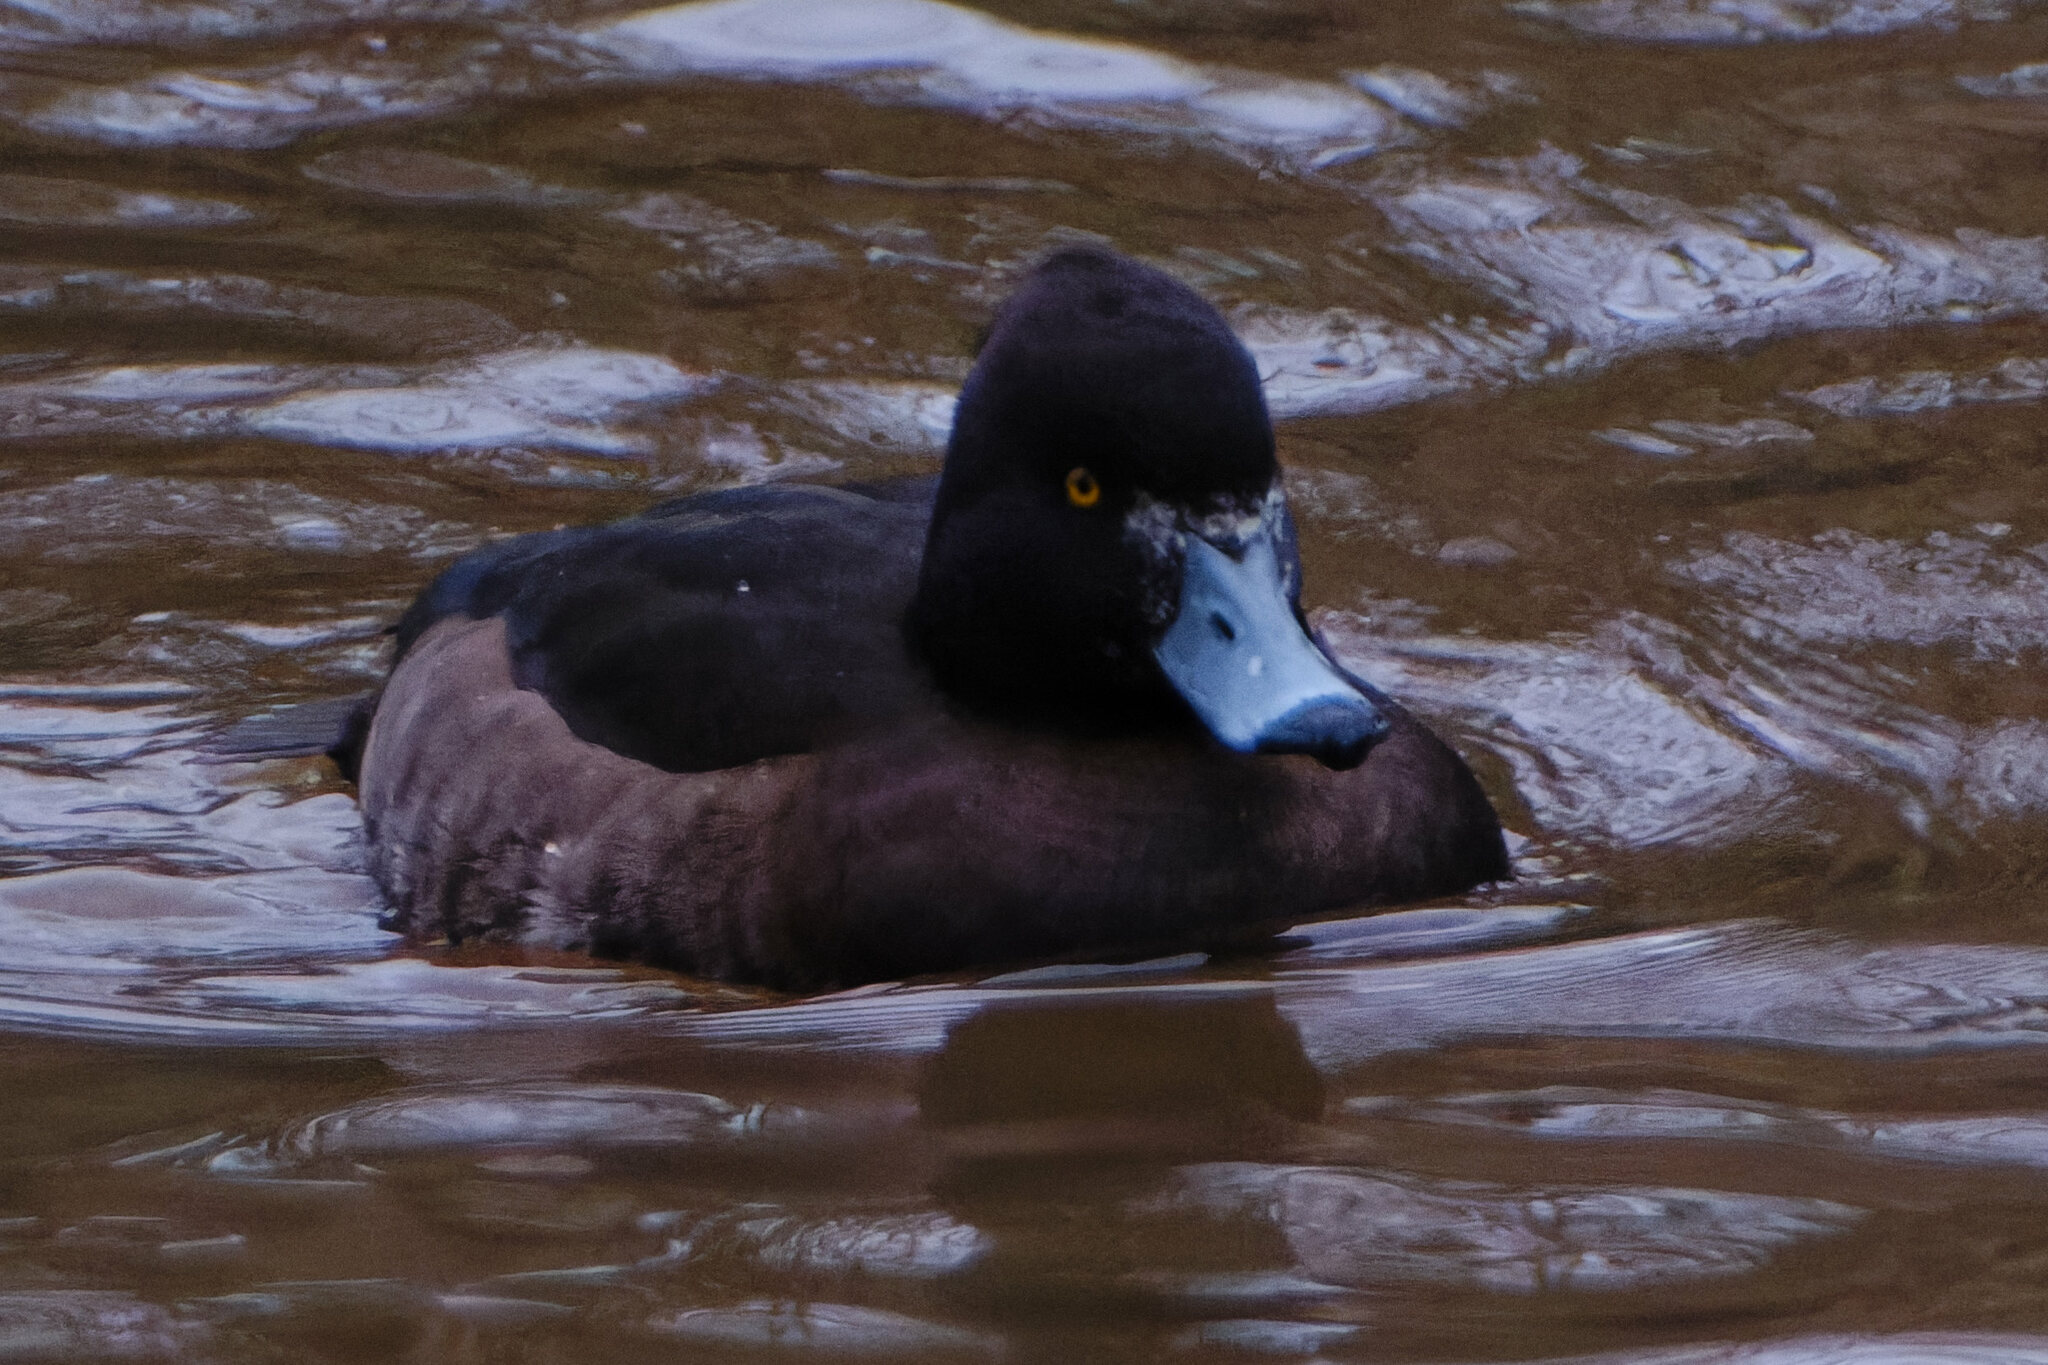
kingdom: Animalia
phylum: Chordata
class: Aves
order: Anseriformes
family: Anatidae
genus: Aythya
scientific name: Aythya fuligula
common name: Tufted duck
